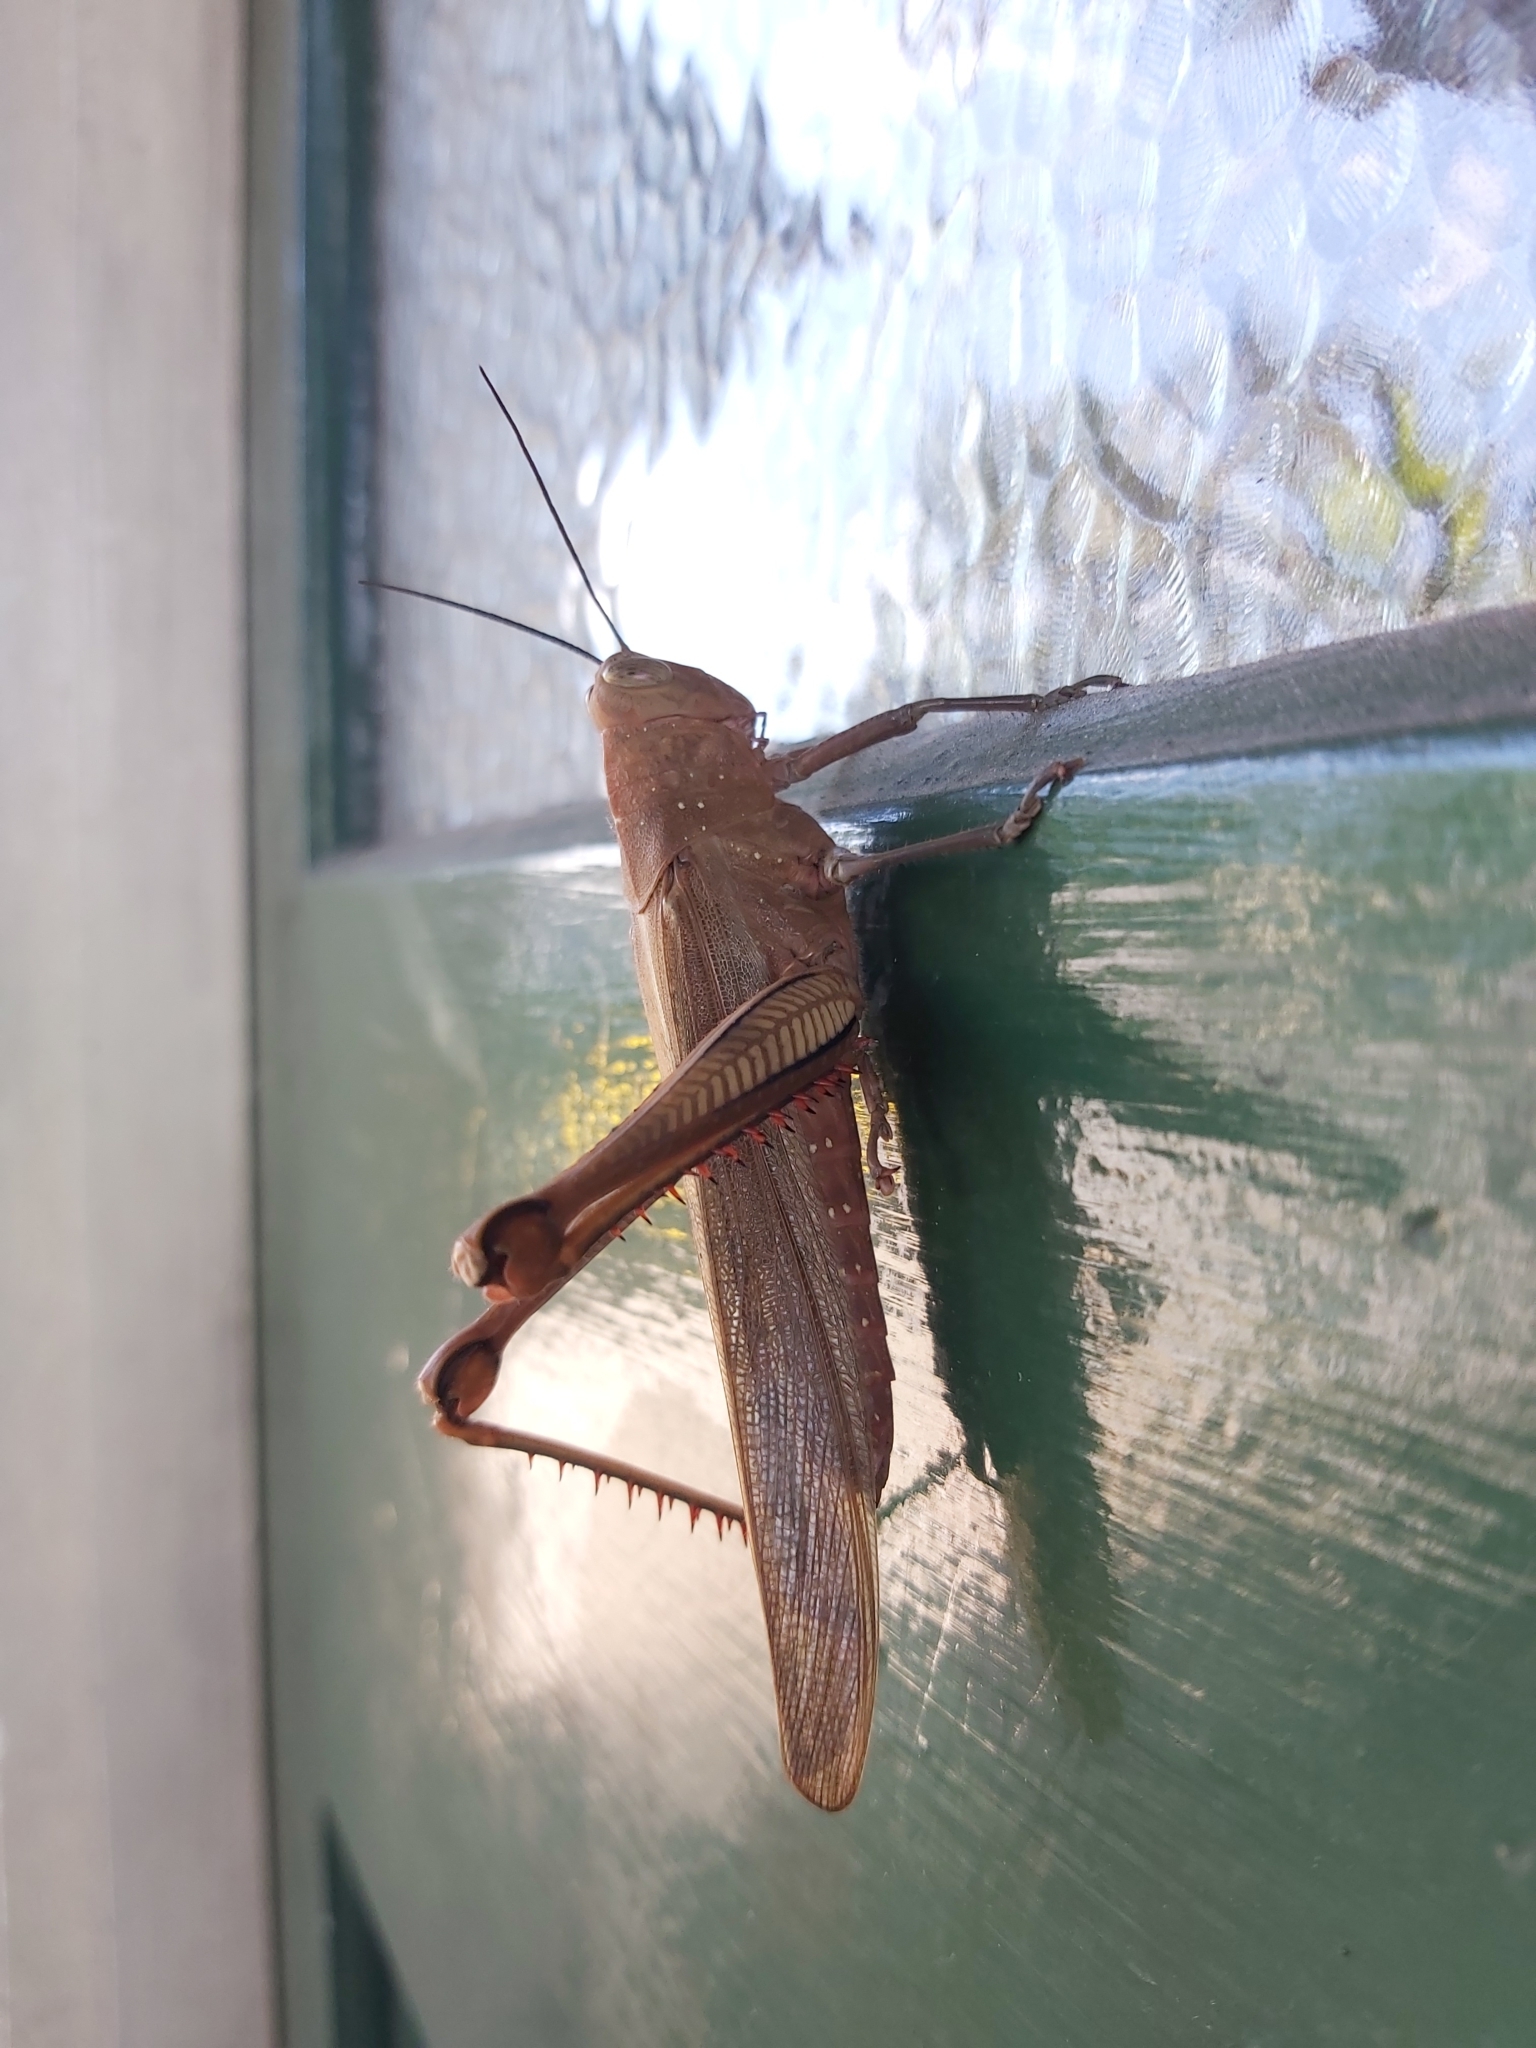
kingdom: Animalia
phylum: Arthropoda
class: Insecta
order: Orthoptera
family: Acrididae
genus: Valanga
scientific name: Valanga irregularis
